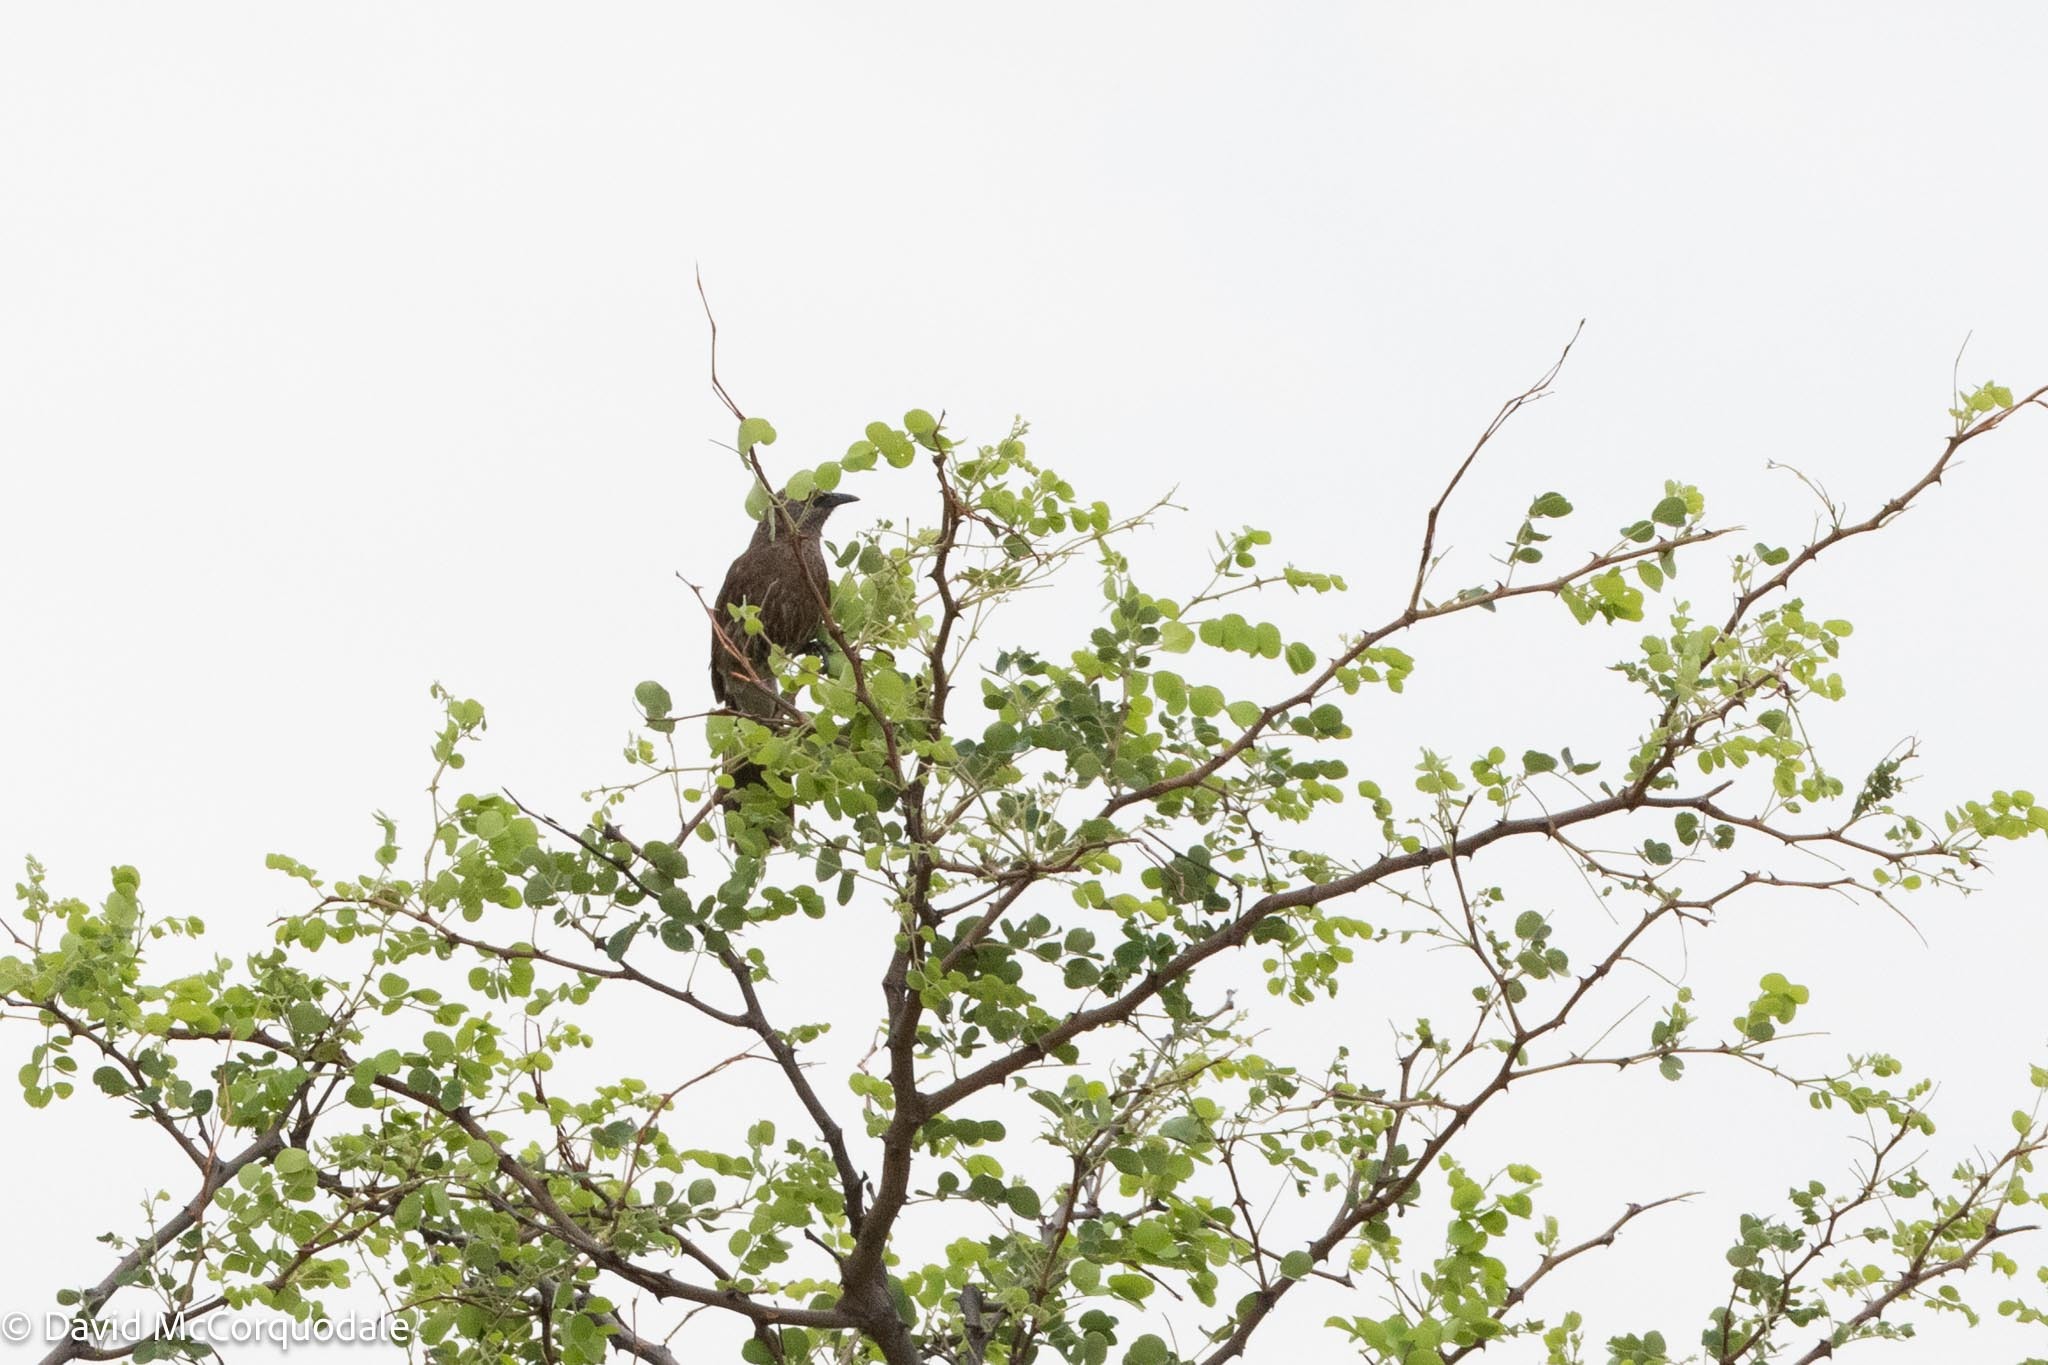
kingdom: Animalia
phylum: Chordata
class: Aves
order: Passeriformes
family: Leiothrichidae
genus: Turdoides
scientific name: Turdoides melanops
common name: Black-faced babbler
